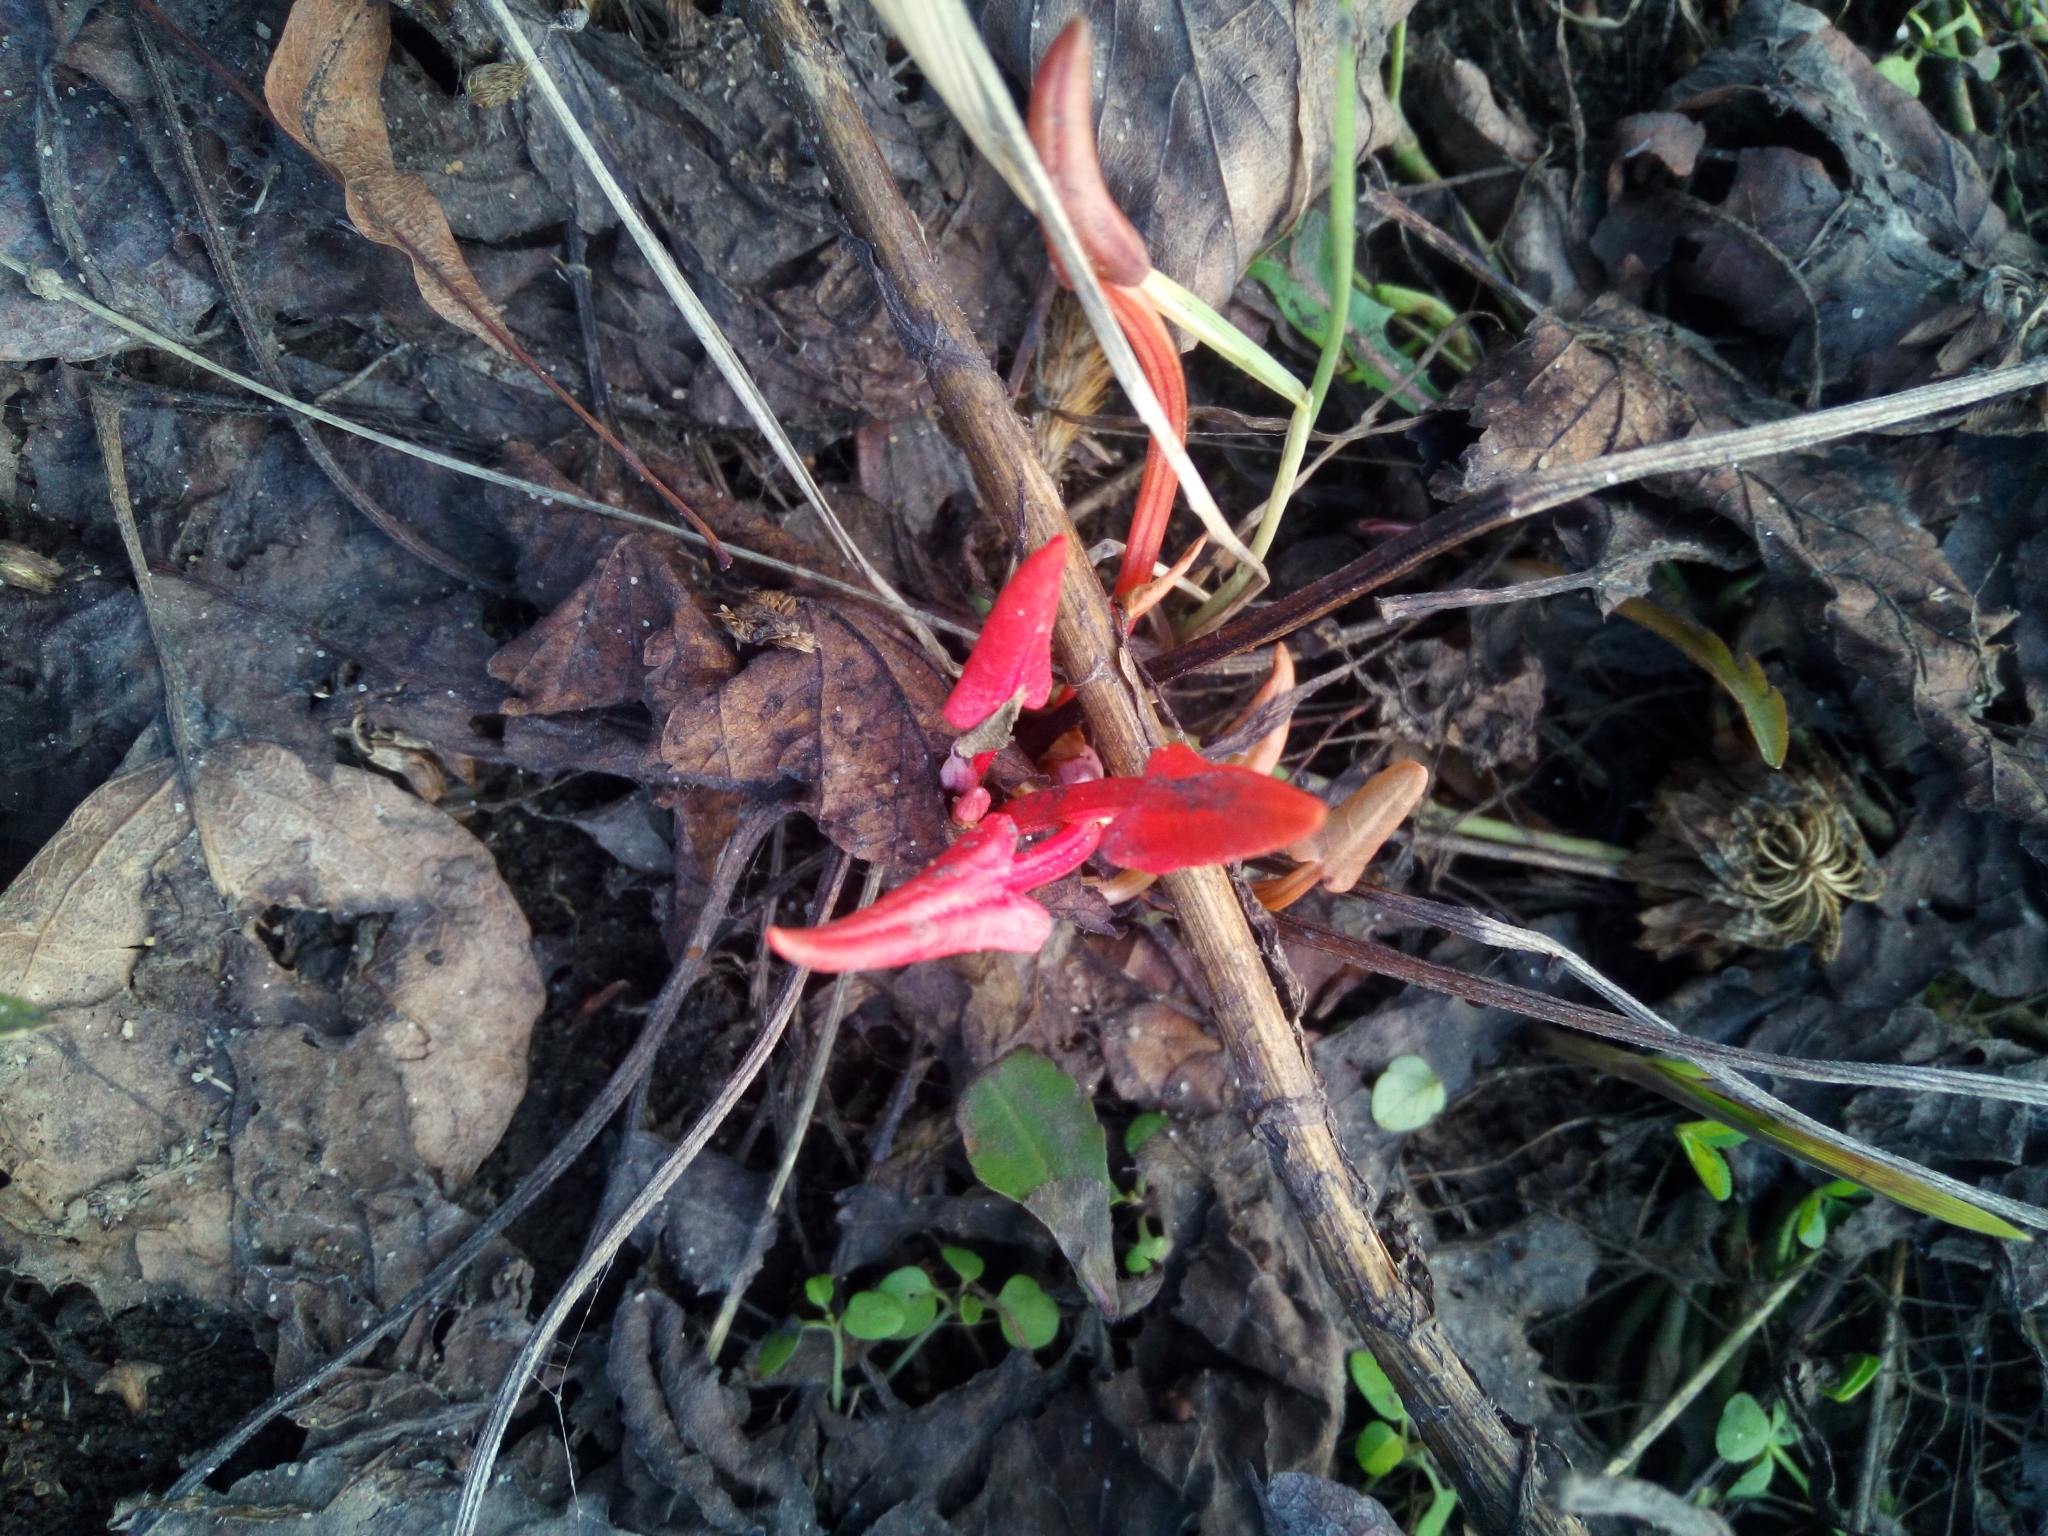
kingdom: Plantae
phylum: Tracheophyta
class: Magnoliopsida
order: Caryophyllales
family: Polygonaceae
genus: Rumex
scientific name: Rumex
